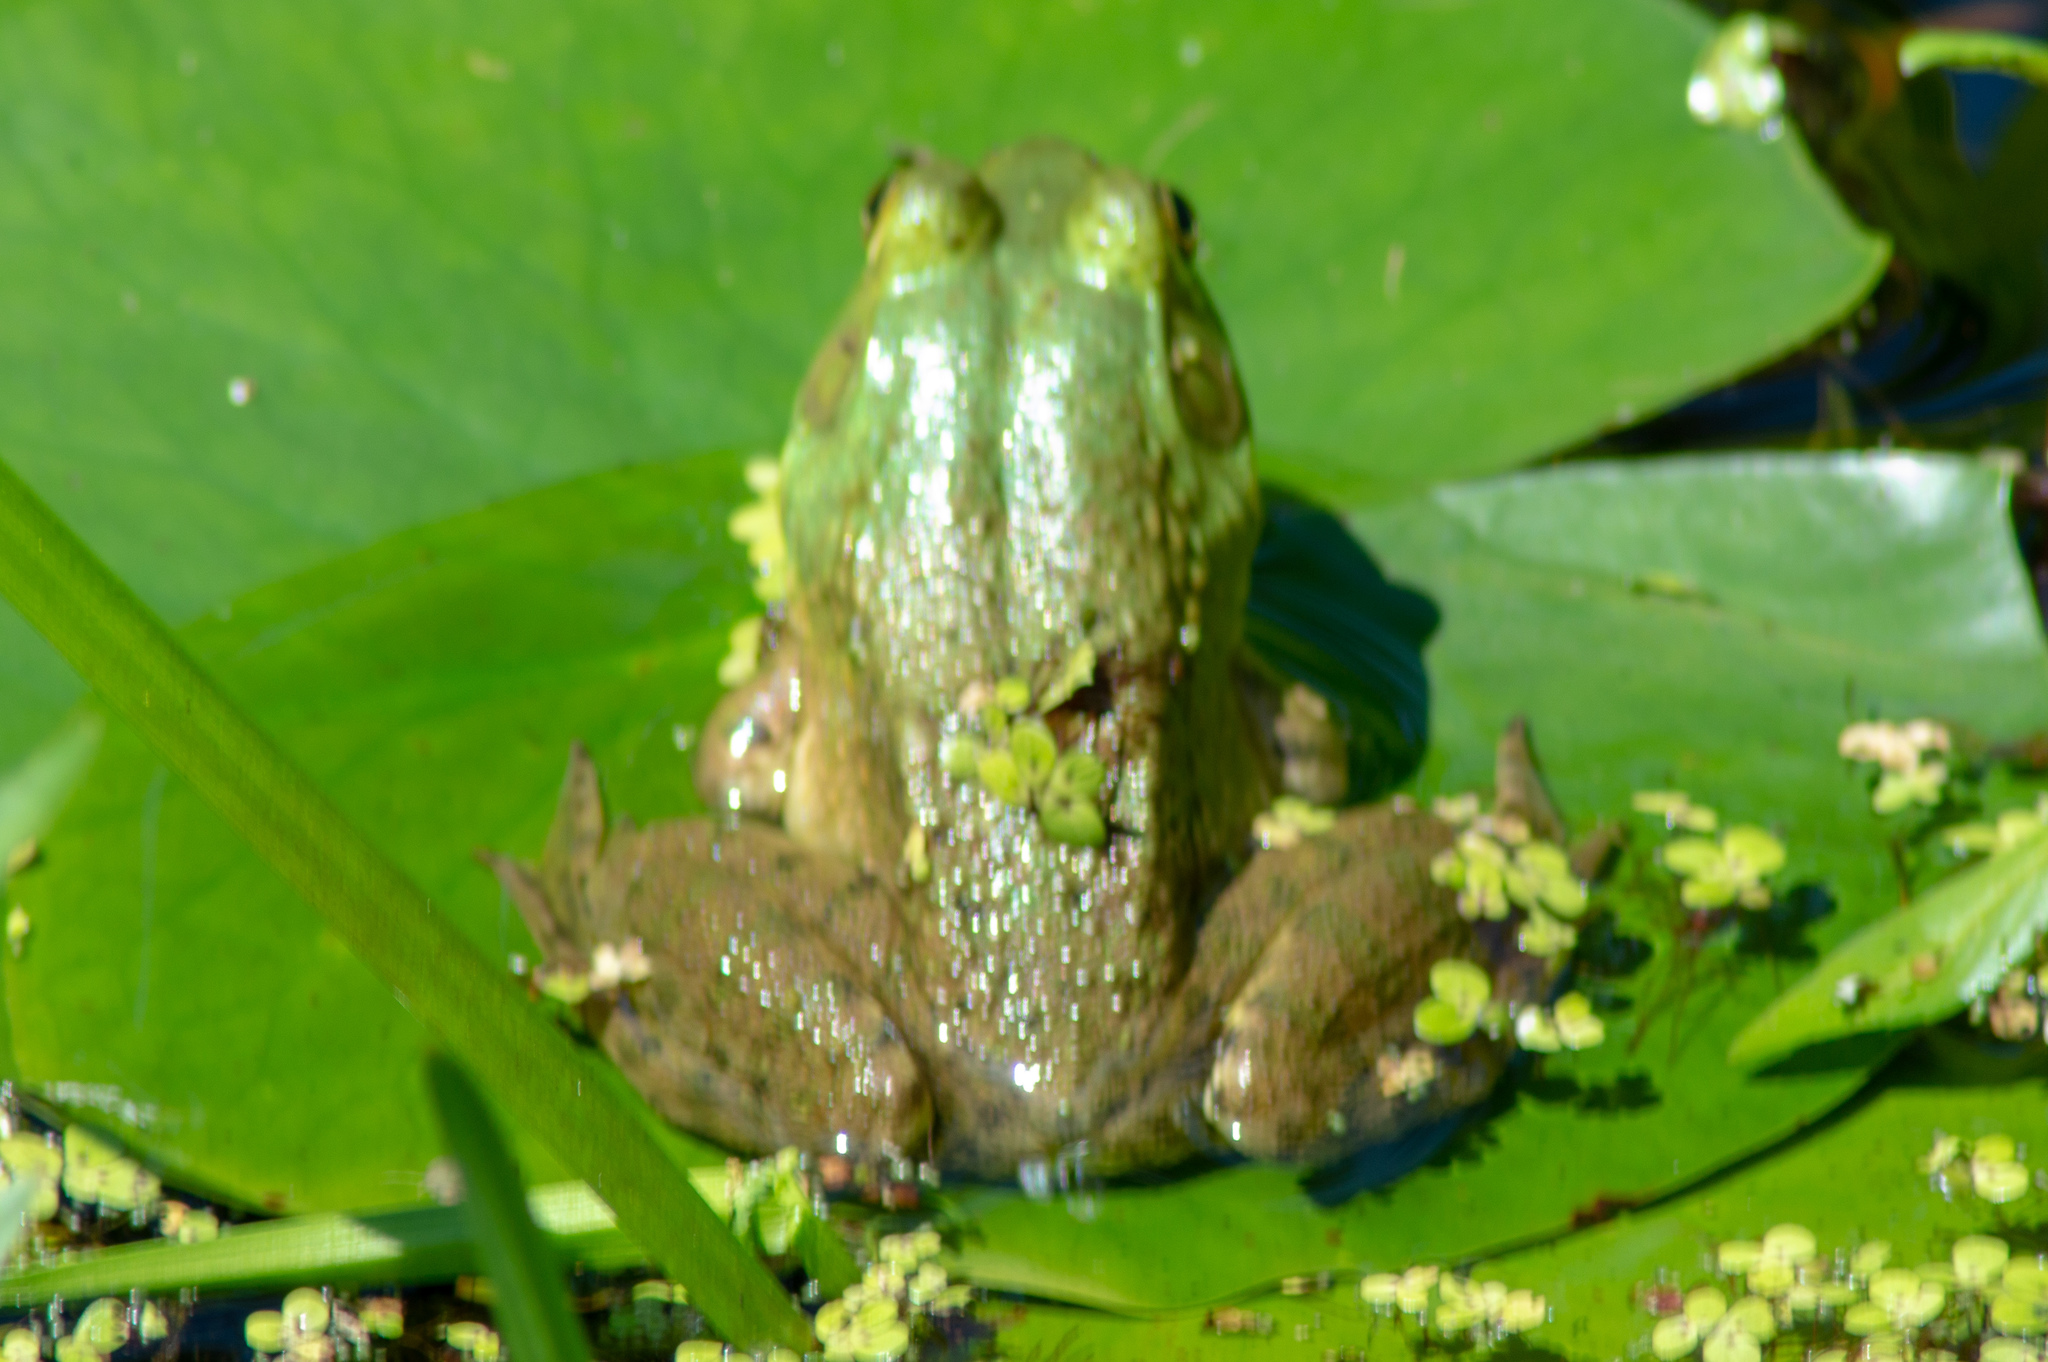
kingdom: Animalia
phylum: Chordata
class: Amphibia
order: Anura
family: Ranidae
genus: Lithobates
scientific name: Lithobates catesbeianus
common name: American bullfrog
